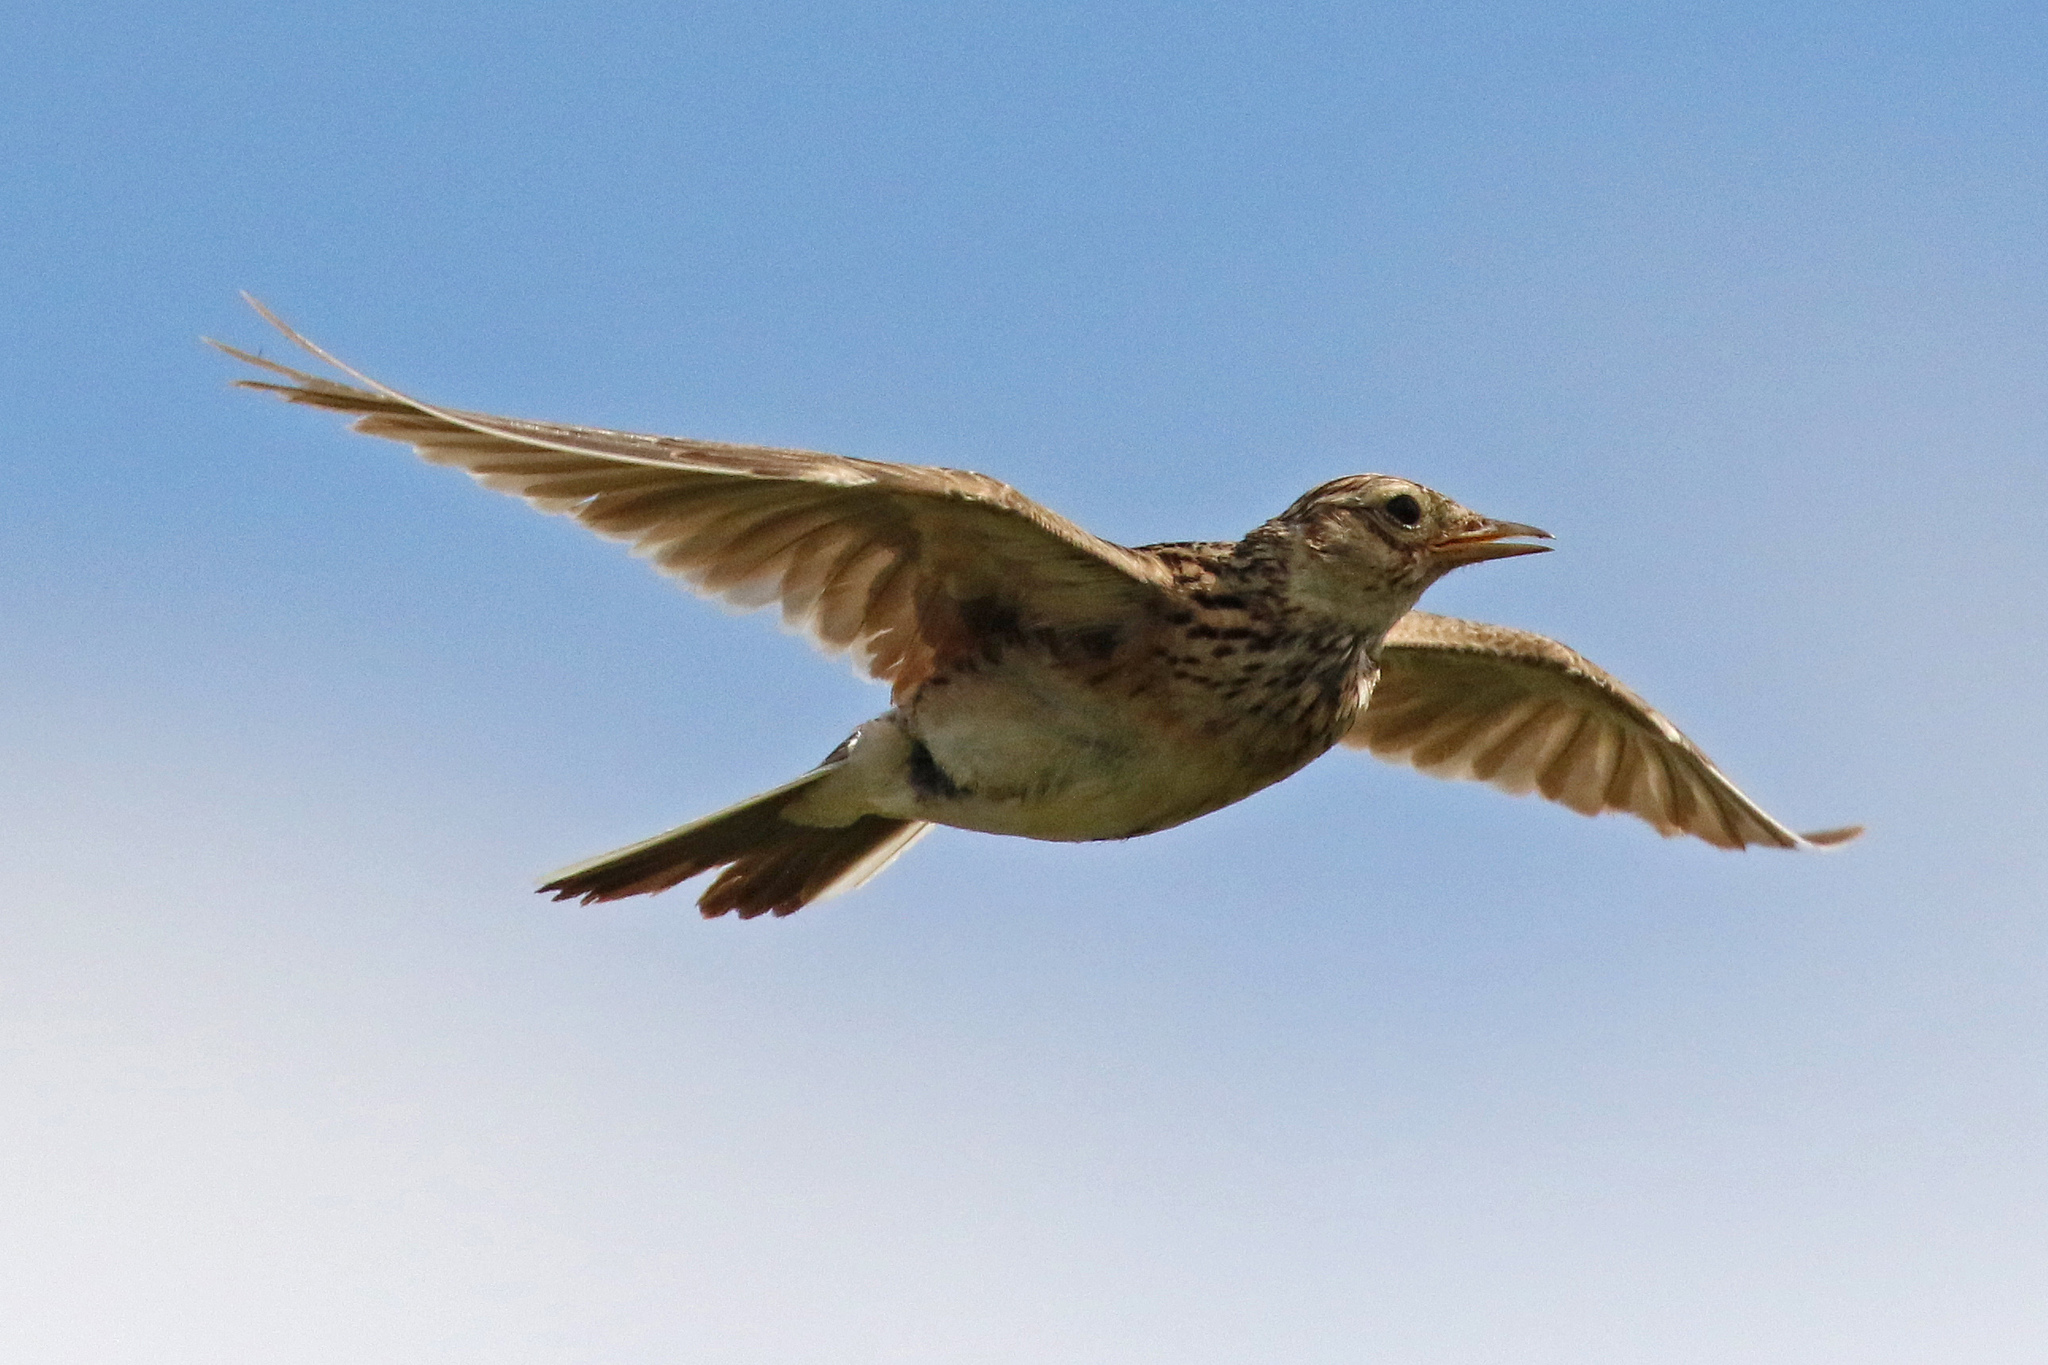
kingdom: Animalia
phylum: Chordata
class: Aves
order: Passeriformes
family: Alaudidae
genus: Alauda
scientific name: Alauda arvensis
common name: Eurasian skylark
